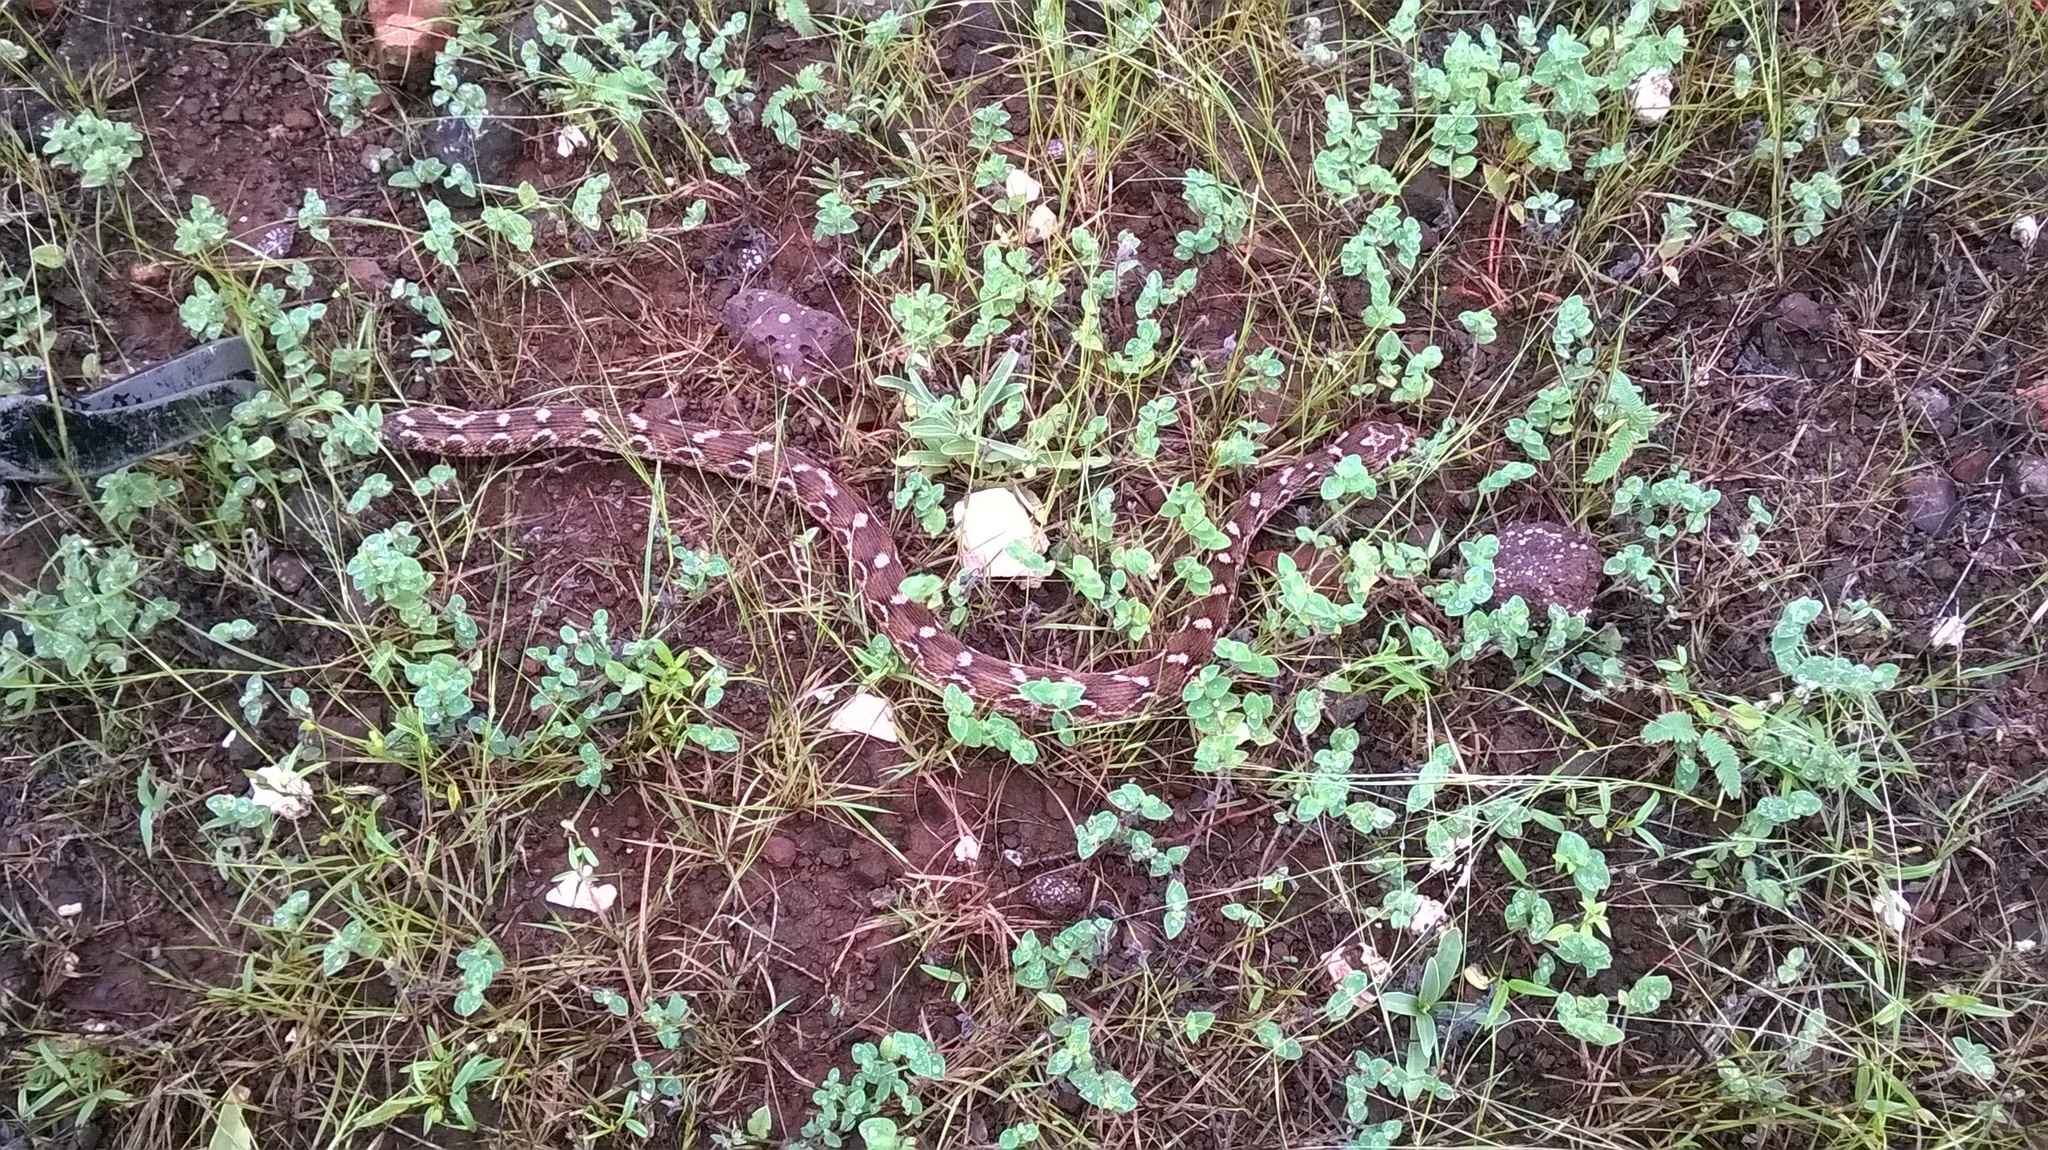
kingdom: Animalia
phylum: Chordata
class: Squamata
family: Viperidae
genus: Echis
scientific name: Echis carinatus
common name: Saw-scaled viper
